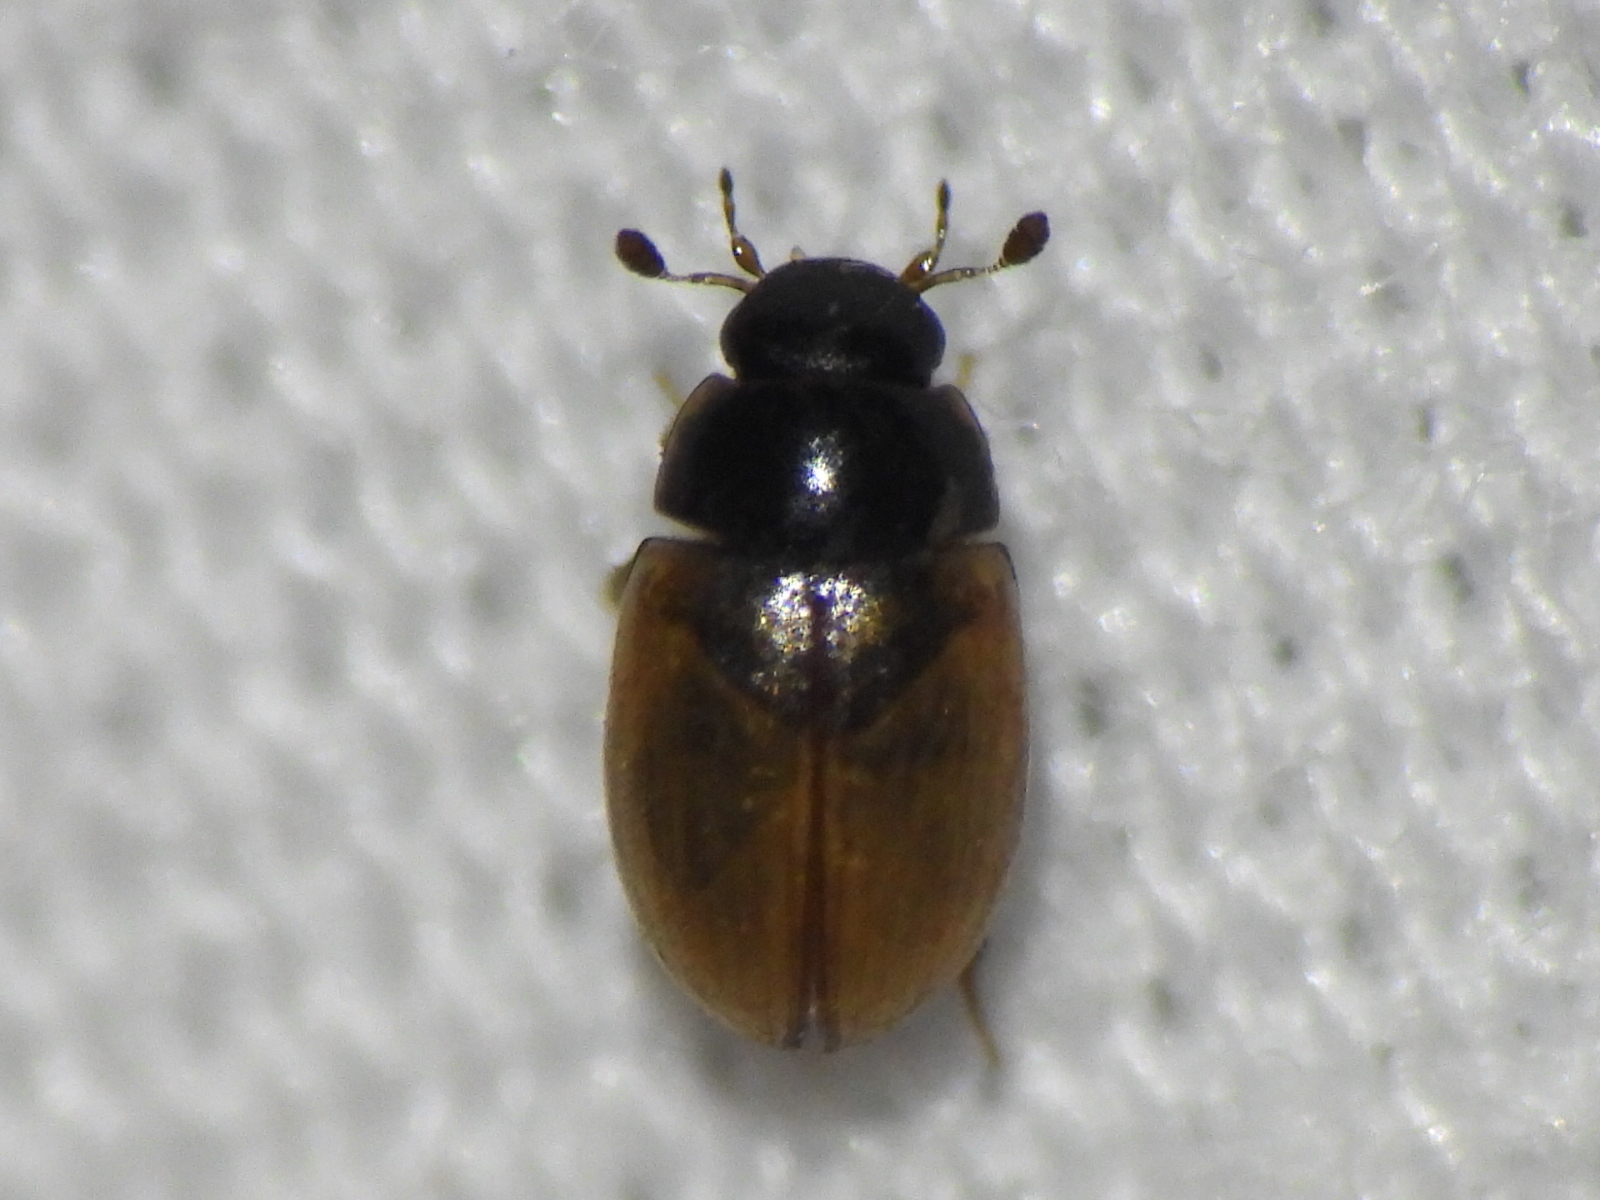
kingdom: Animalia
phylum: Arthropoda
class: Insecta
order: Coleoptera
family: Hydrophilidae
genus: Cercyon
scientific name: Cercyon quisquilius
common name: Water scavenger beetle
